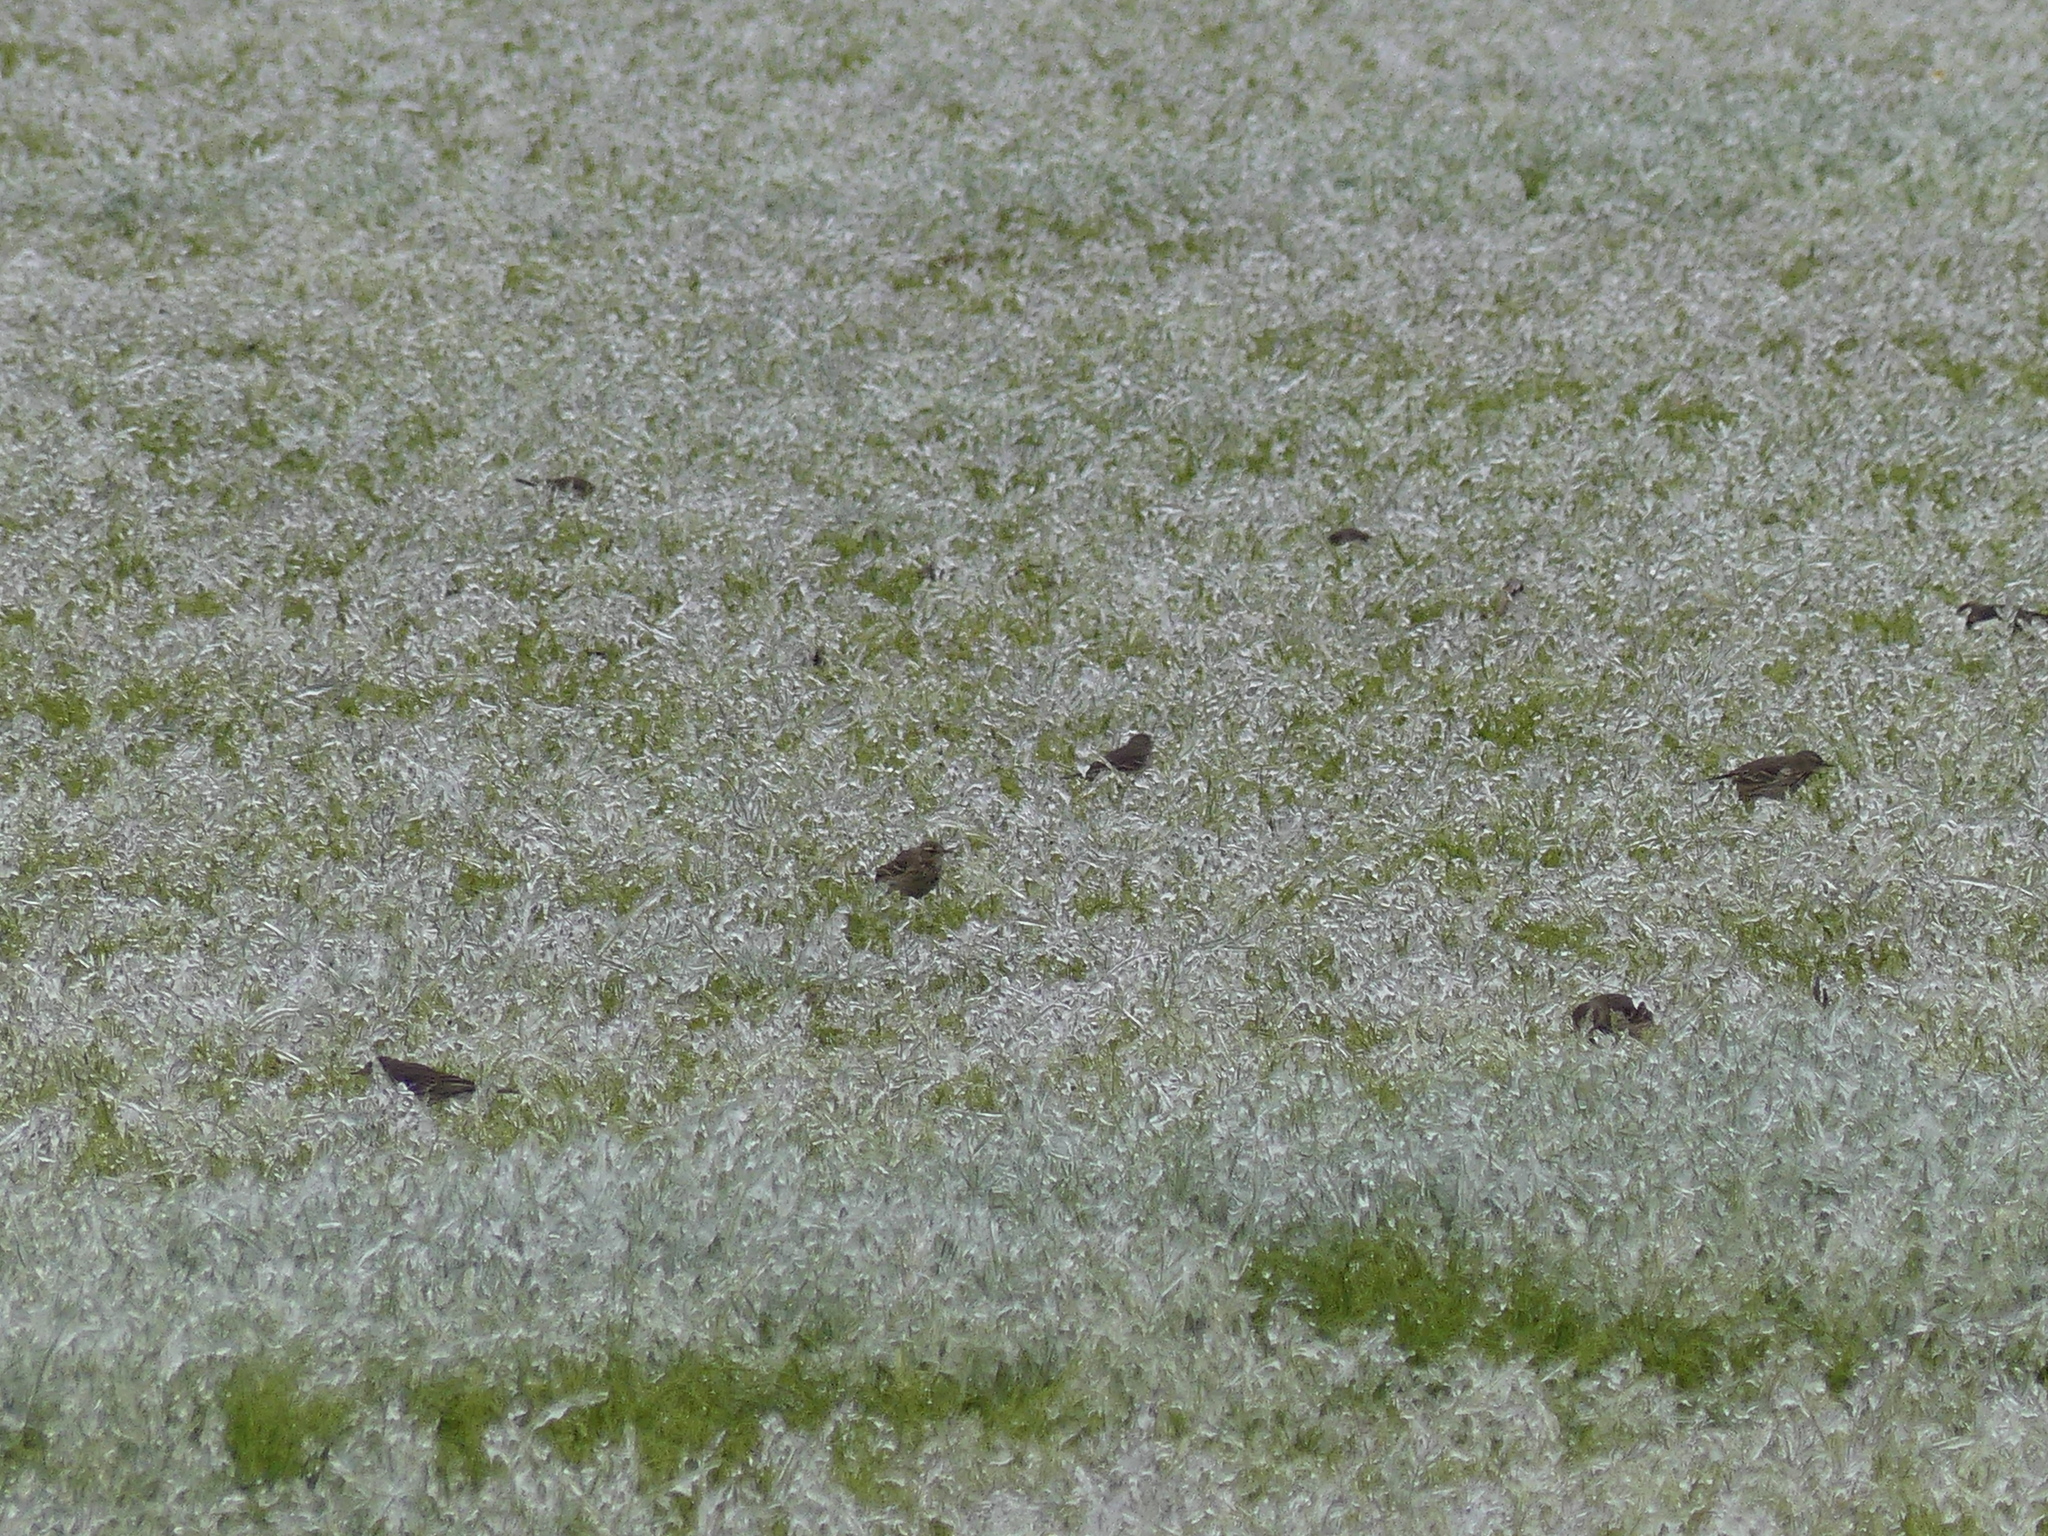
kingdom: Animalia
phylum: Chordata
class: Aves
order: Passeriformes
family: Motacillidae
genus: Anthus
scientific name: Anthus rubescens
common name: Buff-bellied pipit
